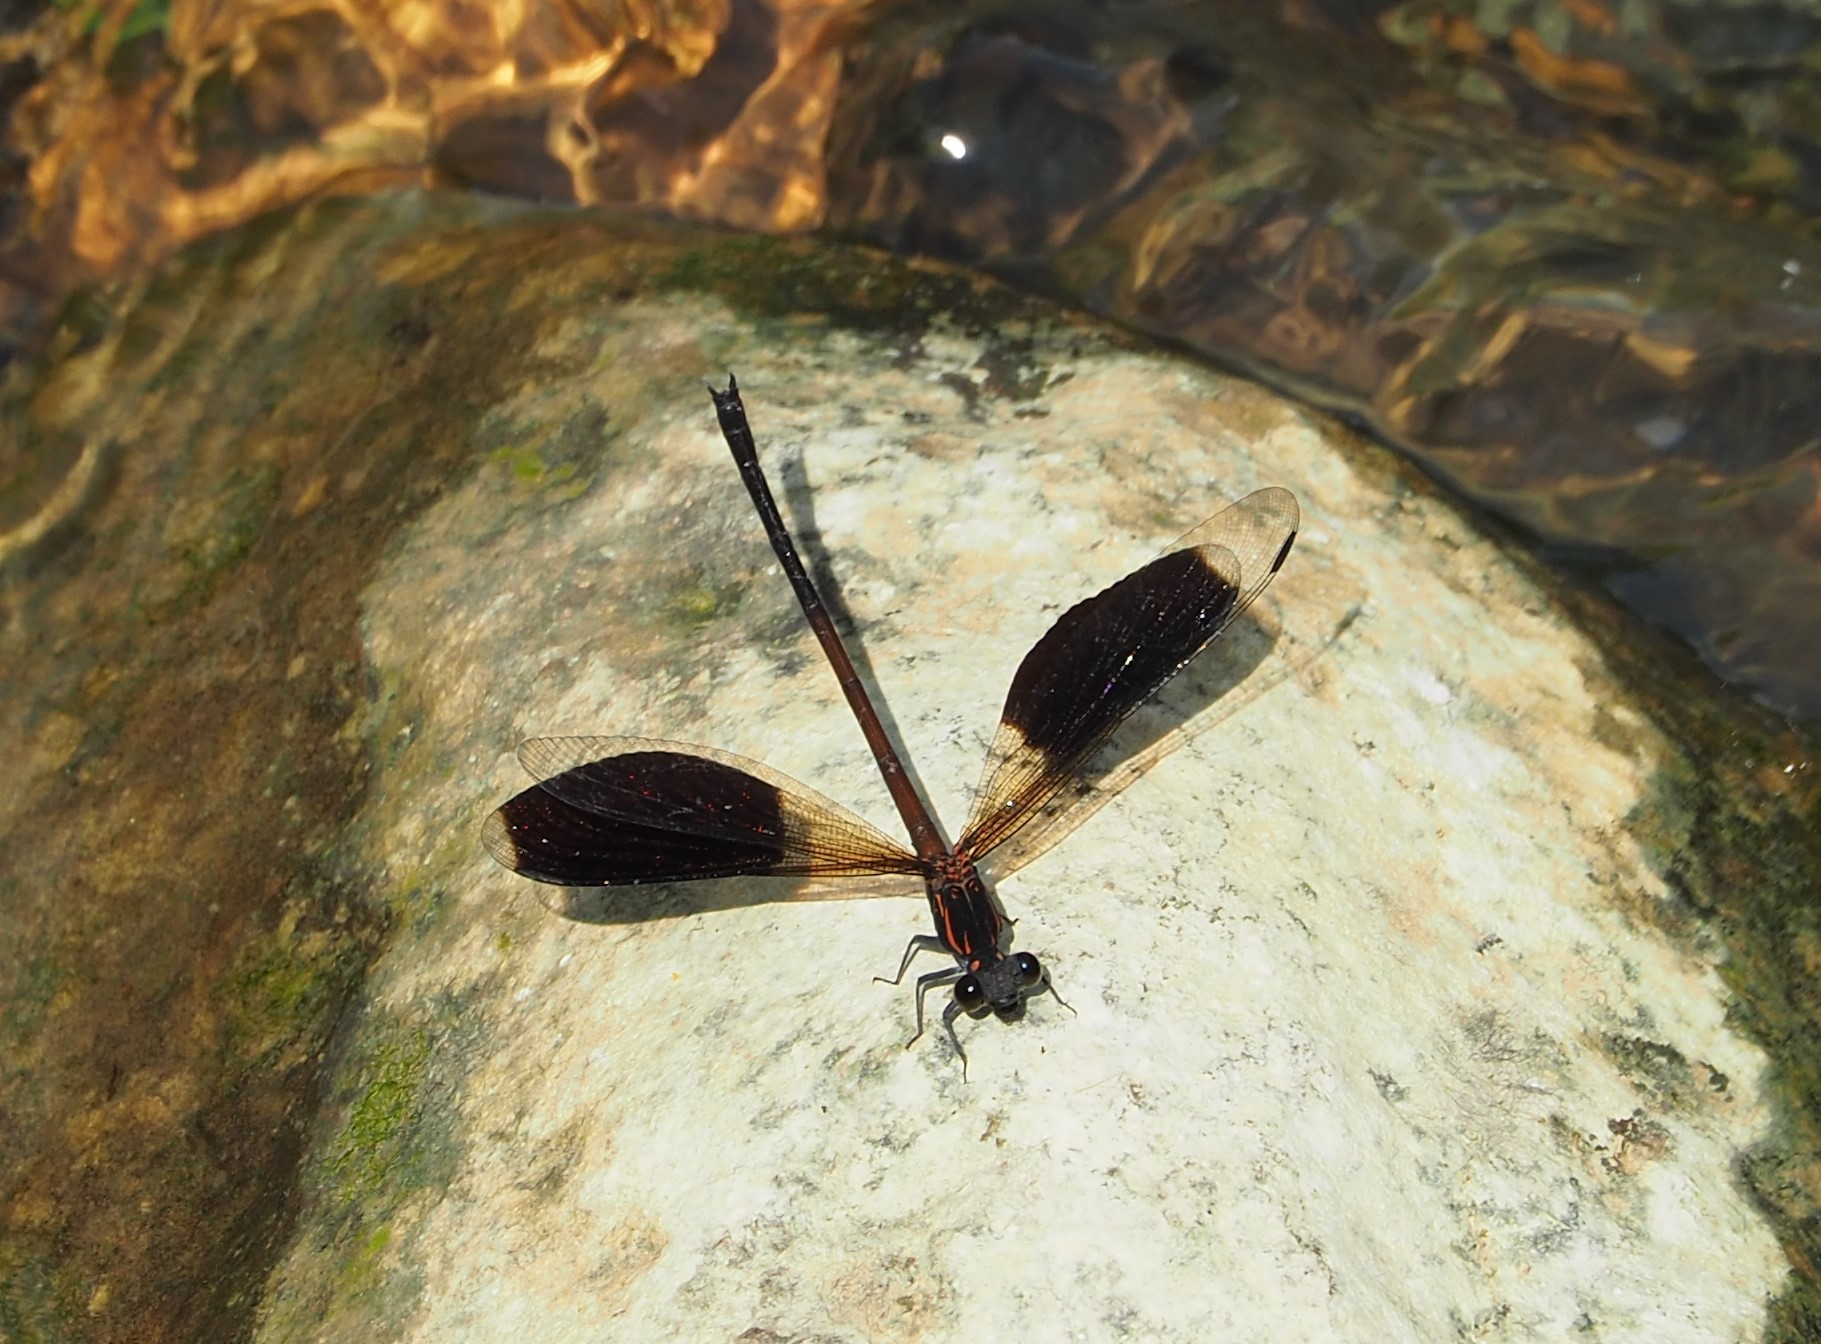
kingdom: Animalia
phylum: Arthropoda
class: Insecta
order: Odonata
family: Euphaeidae
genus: Euphaea
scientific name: Euphaea formosa
